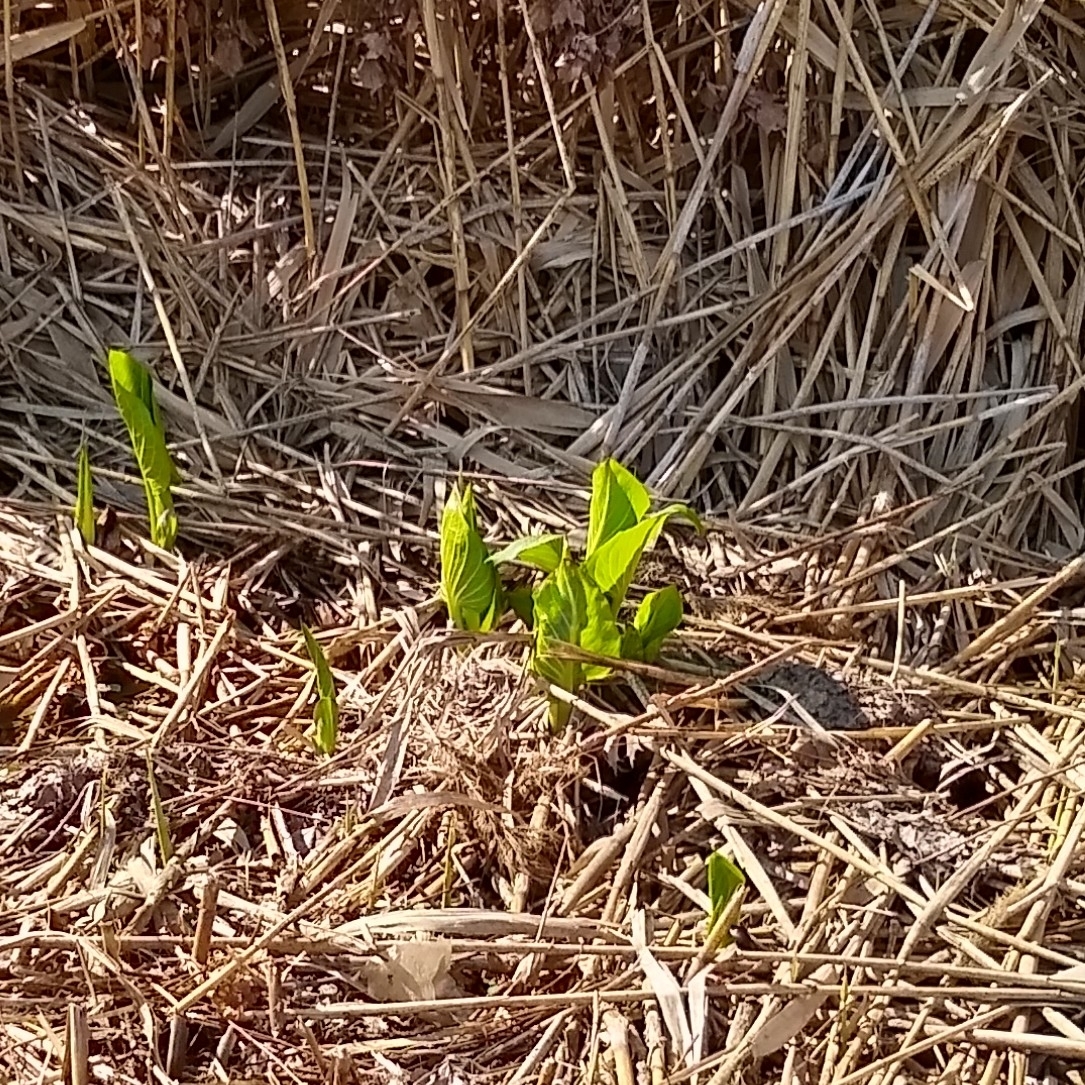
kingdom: Plantae
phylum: Tracheophyta
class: Liliopsida
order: Alismatales
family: Araceae
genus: Symplocarpus
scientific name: Symplocarpus foetidus
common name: Eastern skunk cabbage
